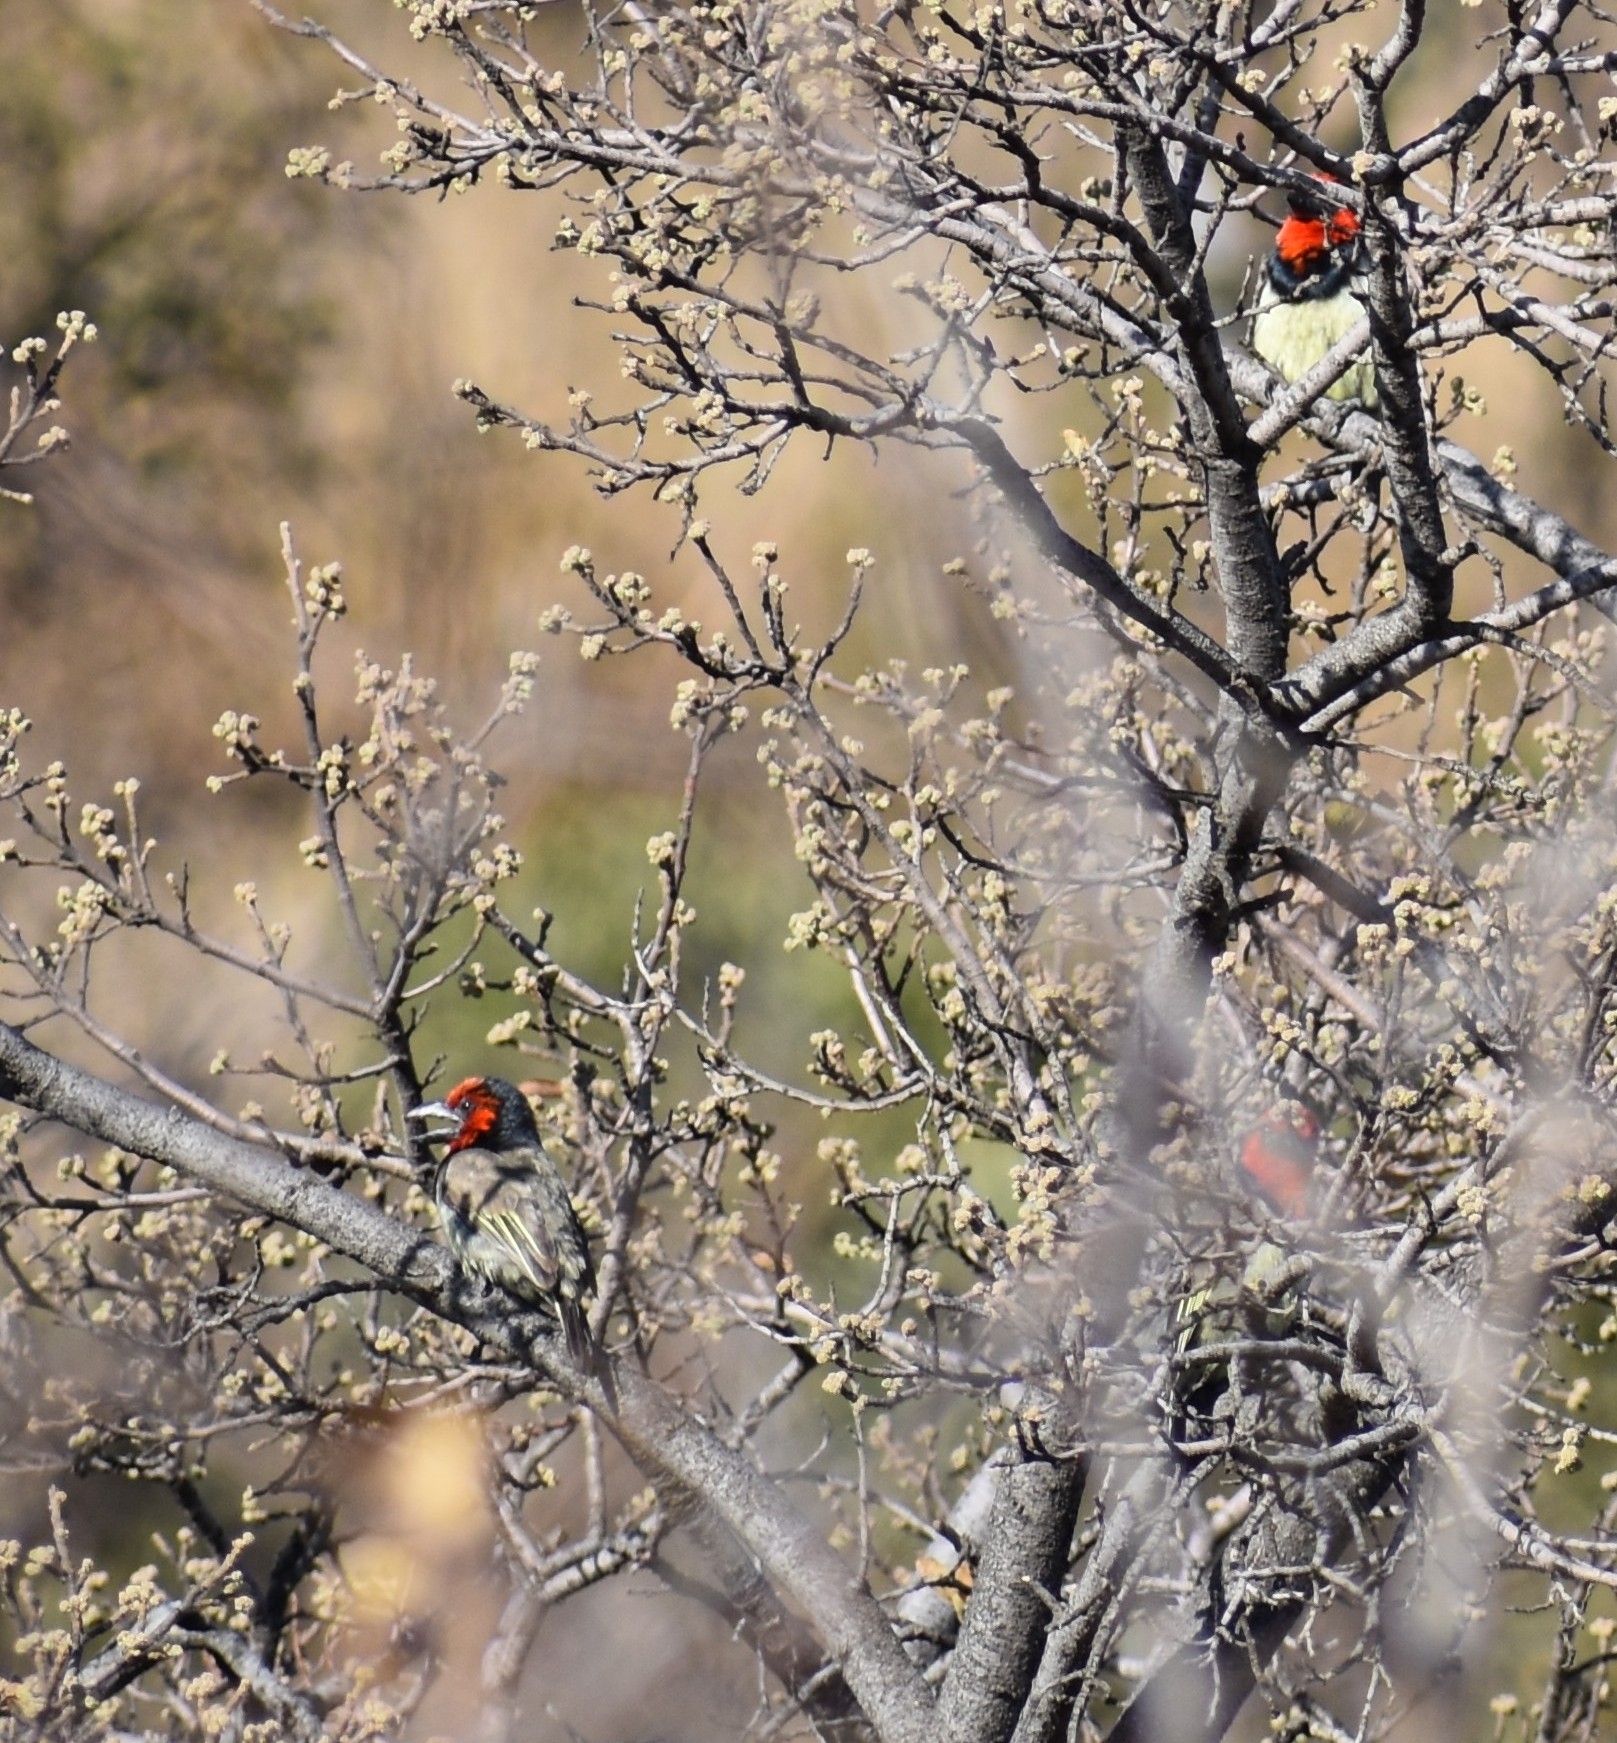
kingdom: Animalia
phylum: Chordata
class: Aves
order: Piciformes
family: Lybiidae
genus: Lybius
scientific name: Lybius torquatus
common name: Black-collared barbet
